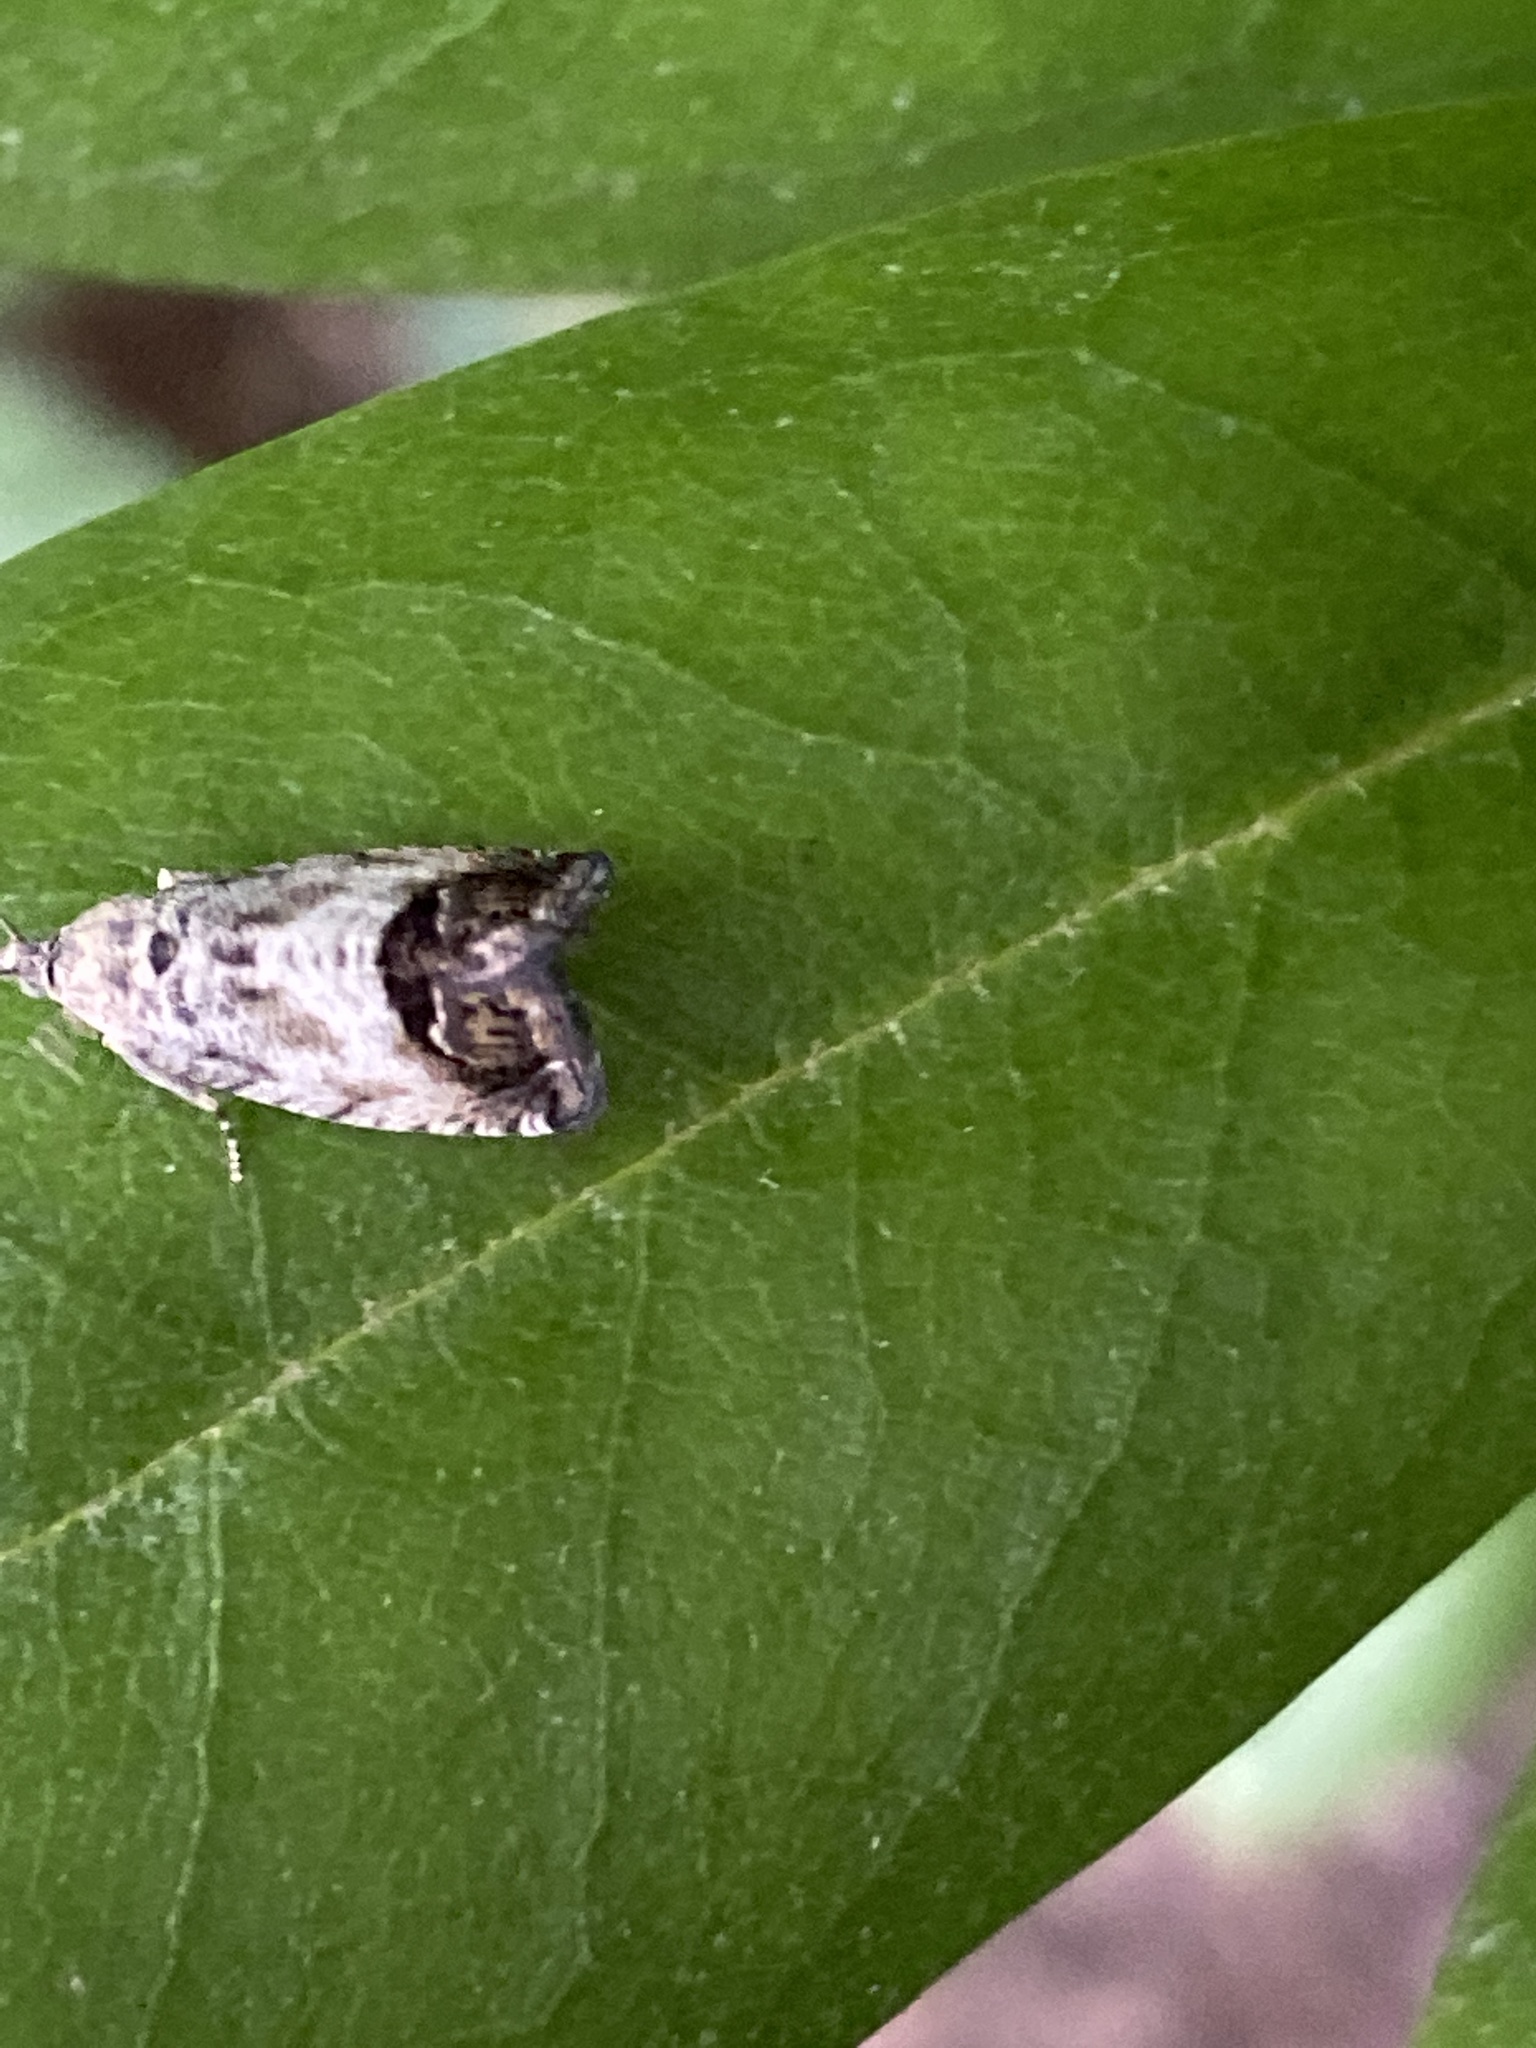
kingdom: Animalia
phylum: Arthropoda
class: Insecta
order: Lepidoptera
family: Tortricidae
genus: Cydia
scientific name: Cydia pomonella
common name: Codling moth
